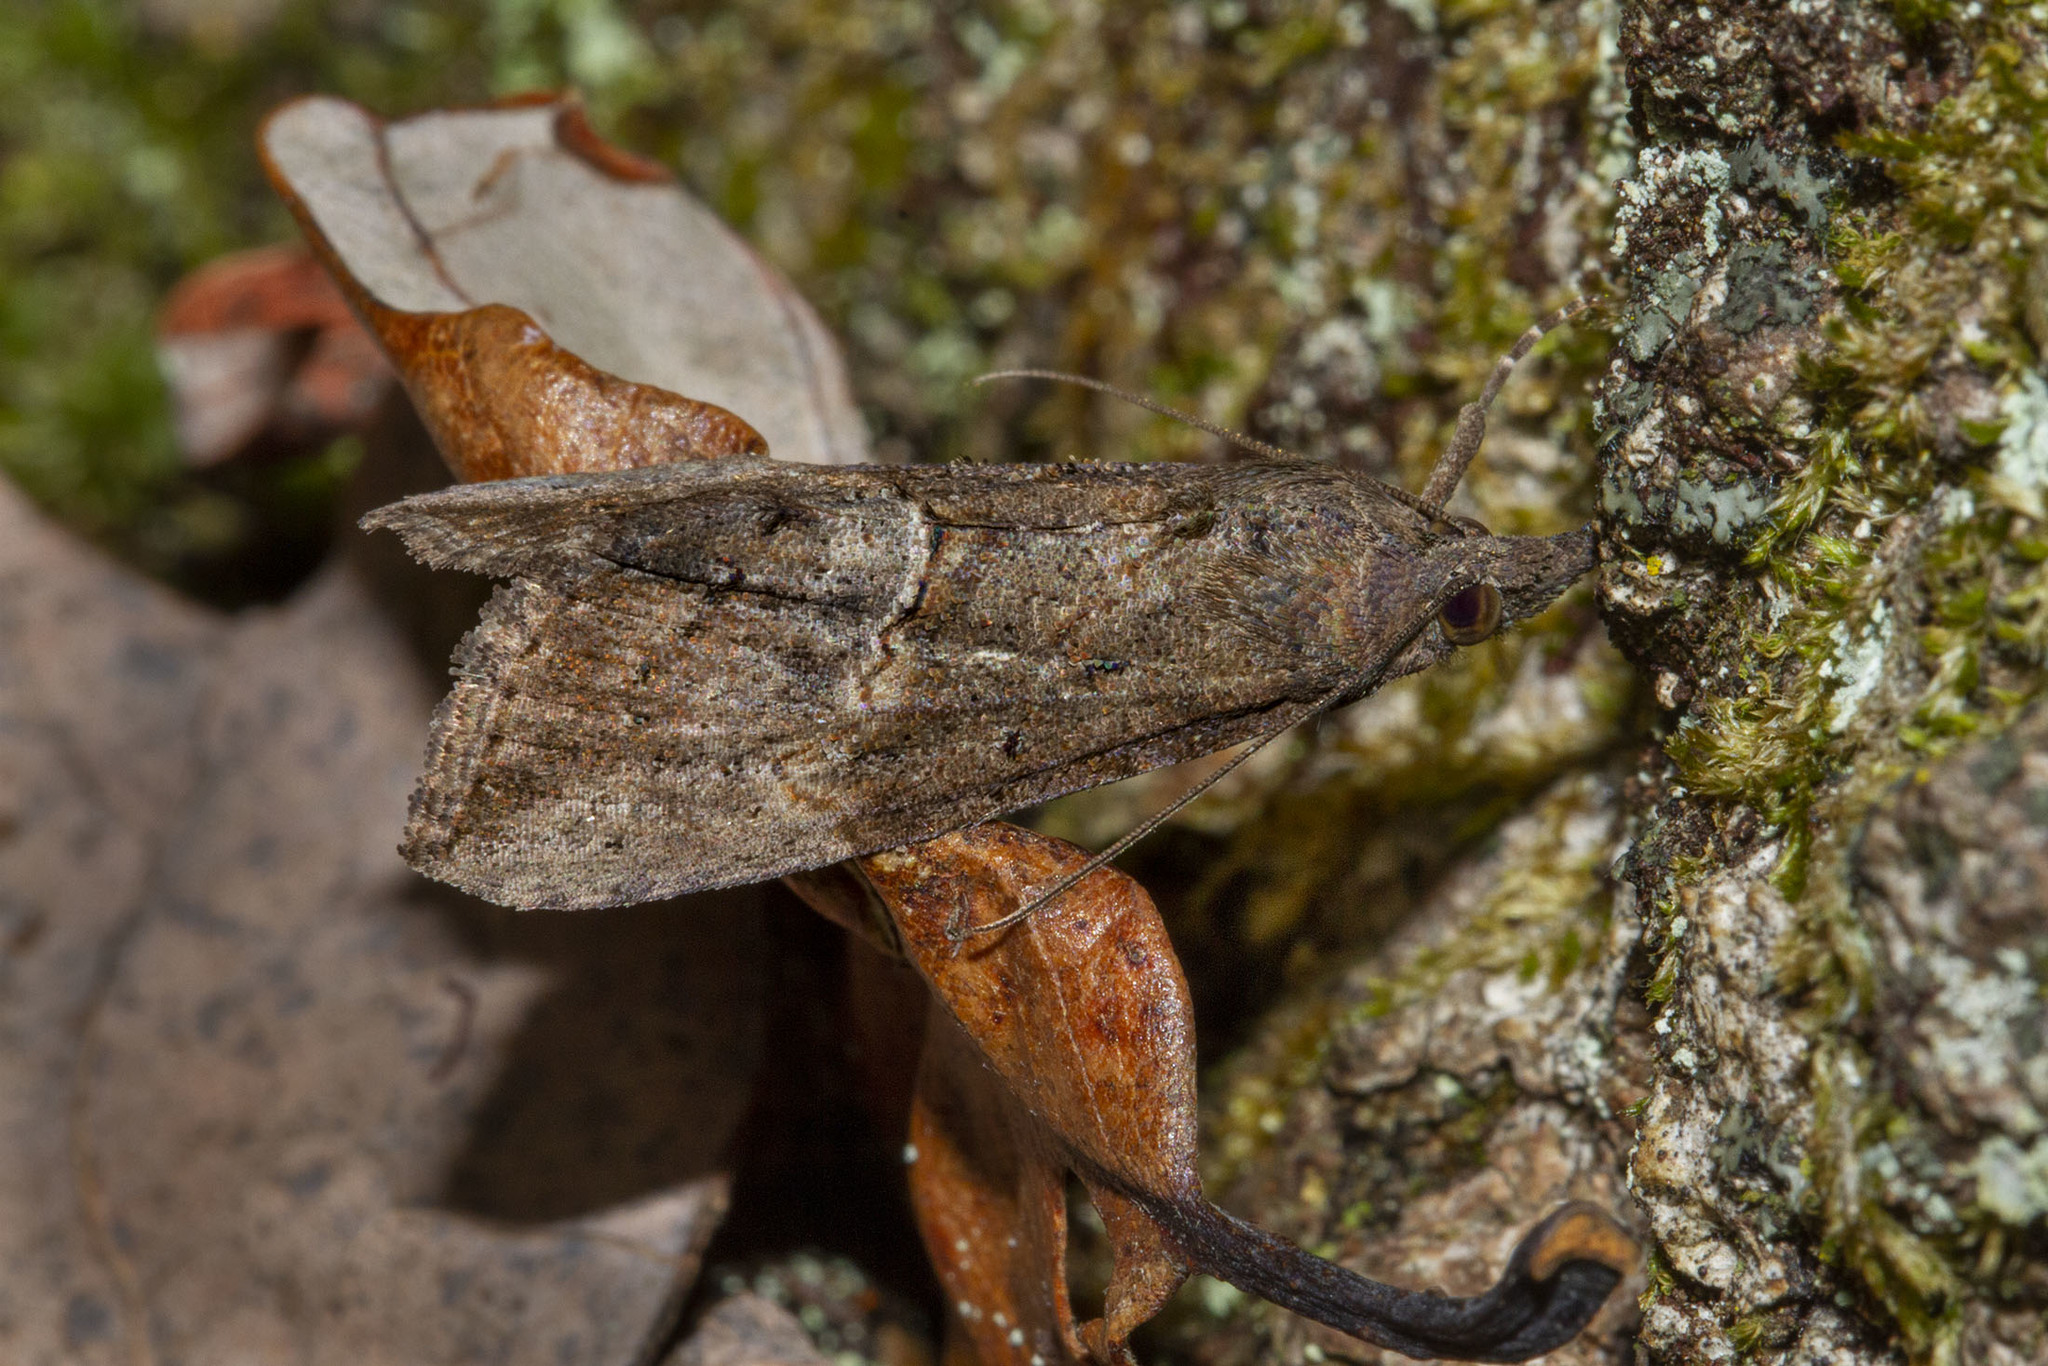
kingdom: Animalia
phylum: Arthropoda
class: Insecta
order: Lepidoptera
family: Erebidae
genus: Hypena
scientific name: Hypena scabra
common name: Green cloverworm
